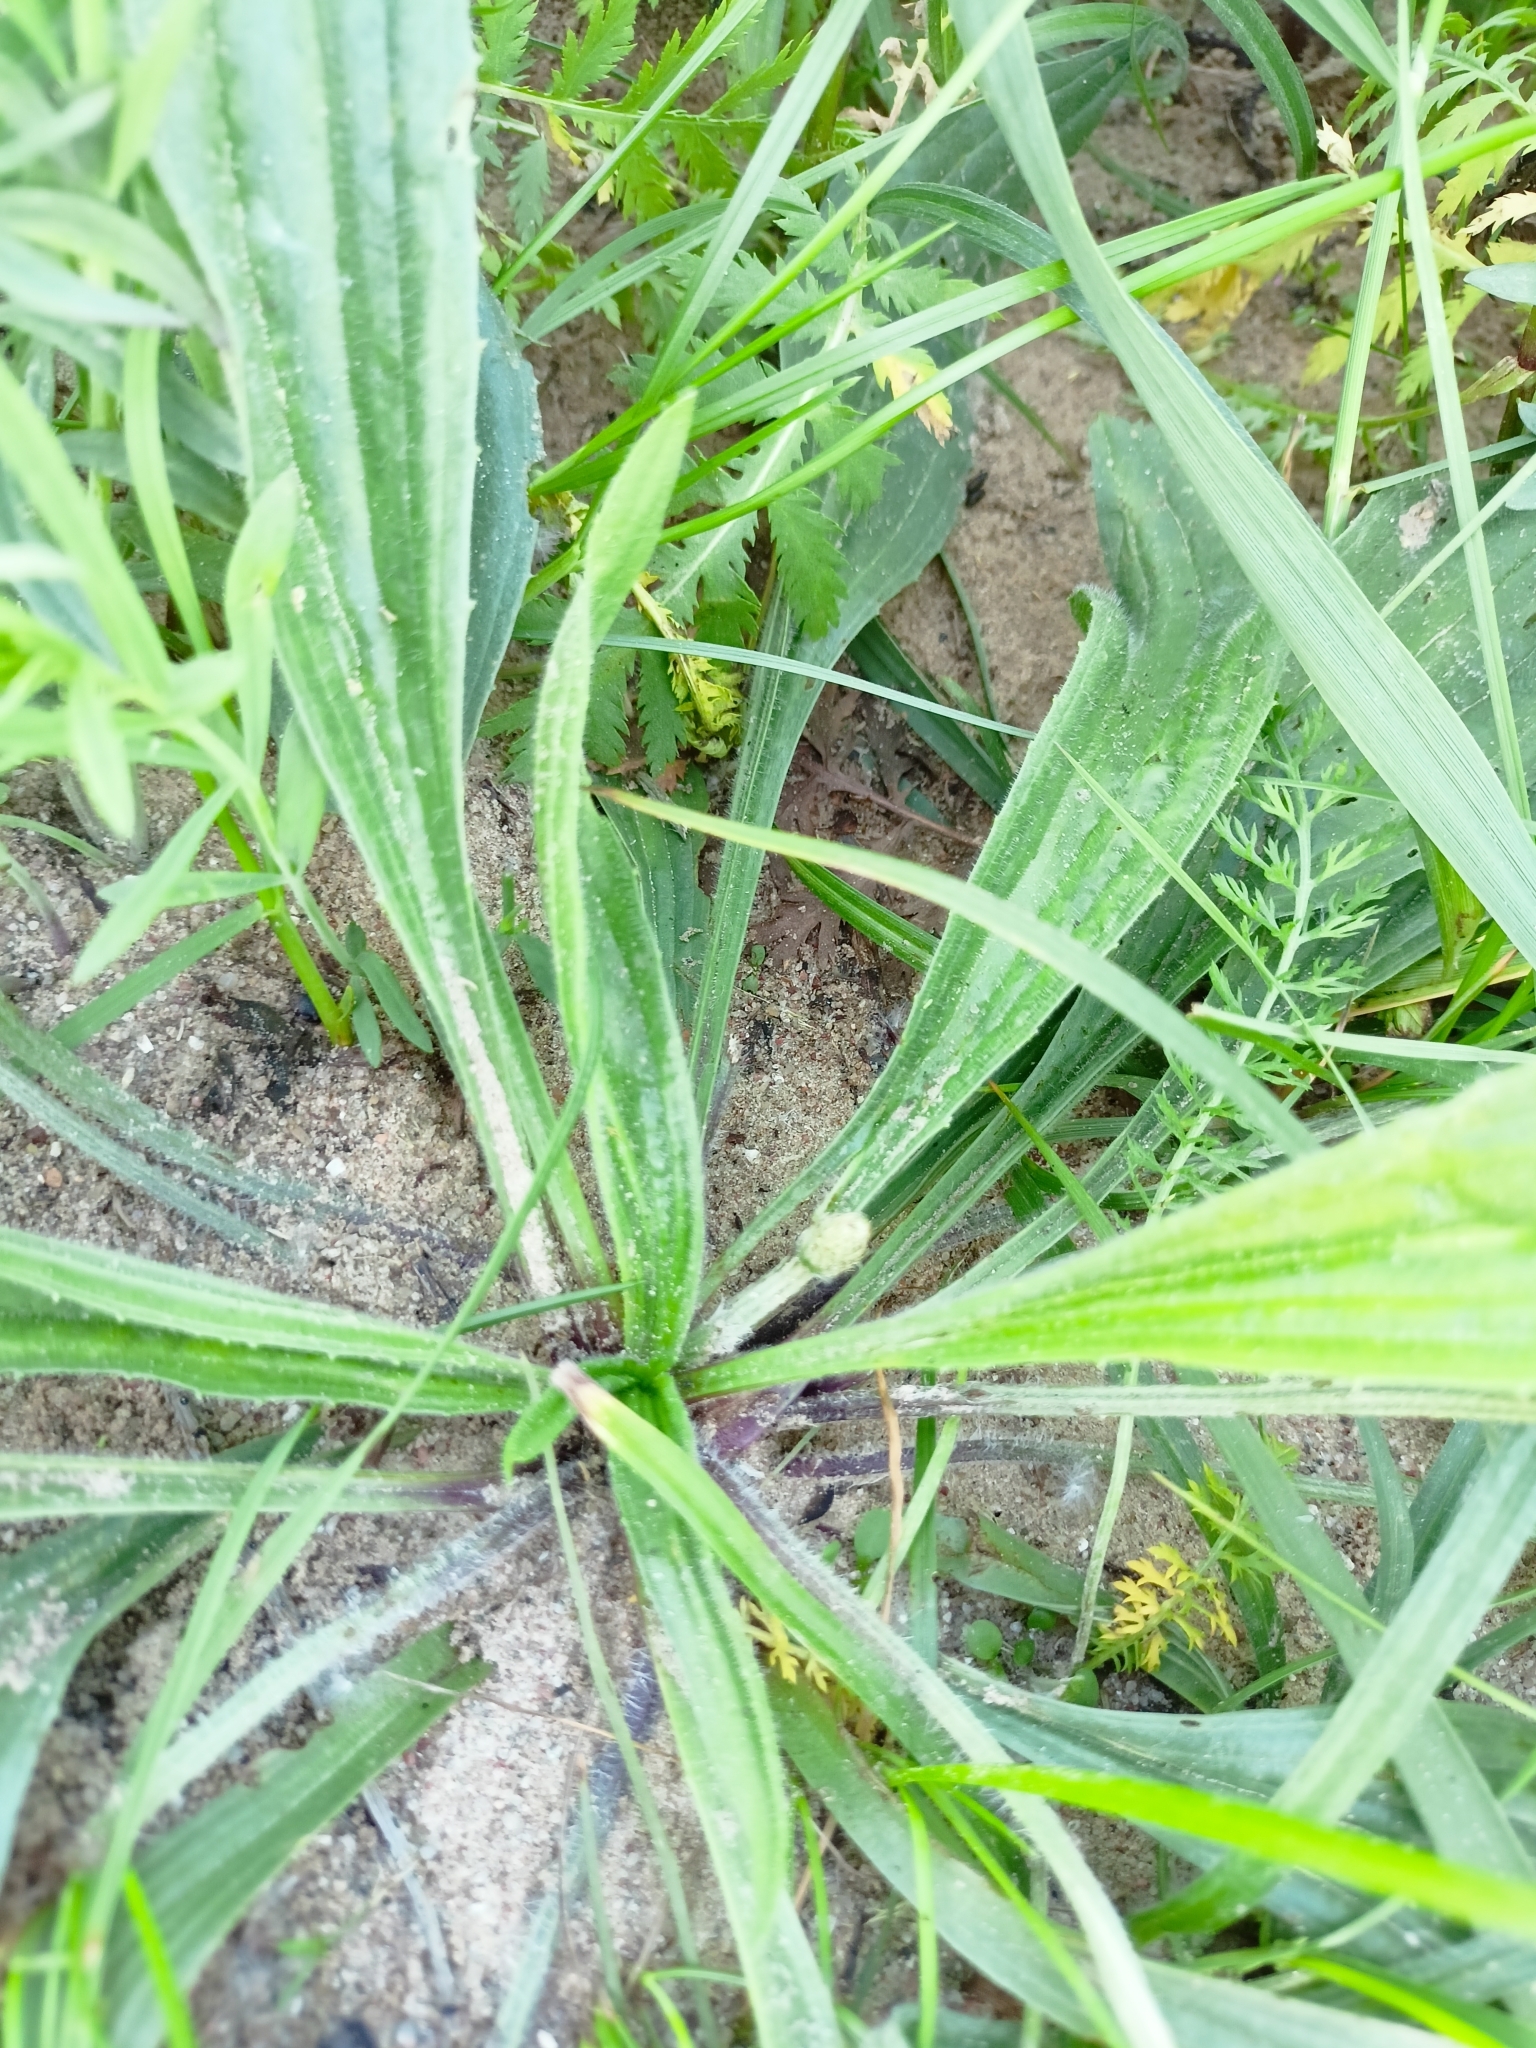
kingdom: Plantae
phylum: Tracheophyta
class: Magnoliopsida
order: Lamiales
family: Plantaginaceae
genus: Plantago
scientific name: Plantago lanceolata
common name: Ribwort plantain
